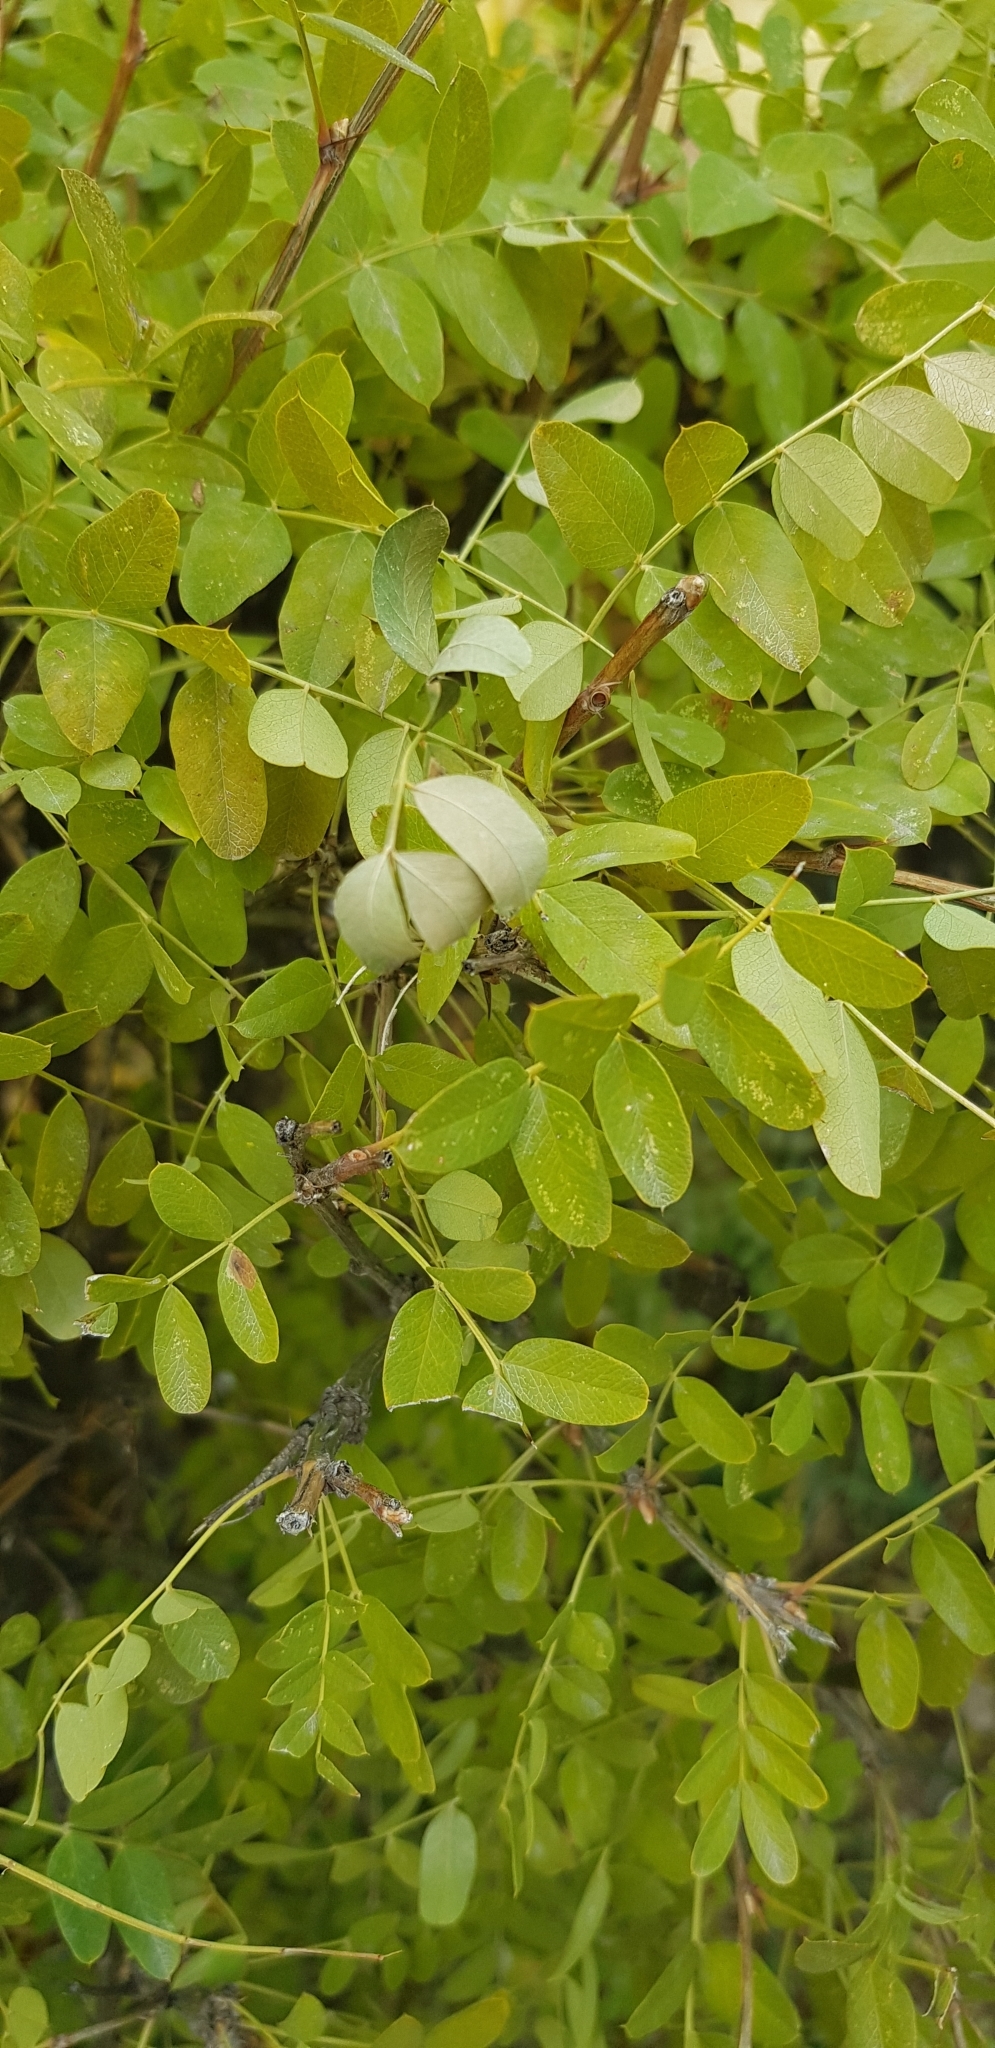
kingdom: Plantae
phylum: Tracheophyta
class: Magnoliopsida
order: Fabales
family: Fabaceae
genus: Caragana
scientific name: Caragana arborescens
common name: Siberian peashrub
